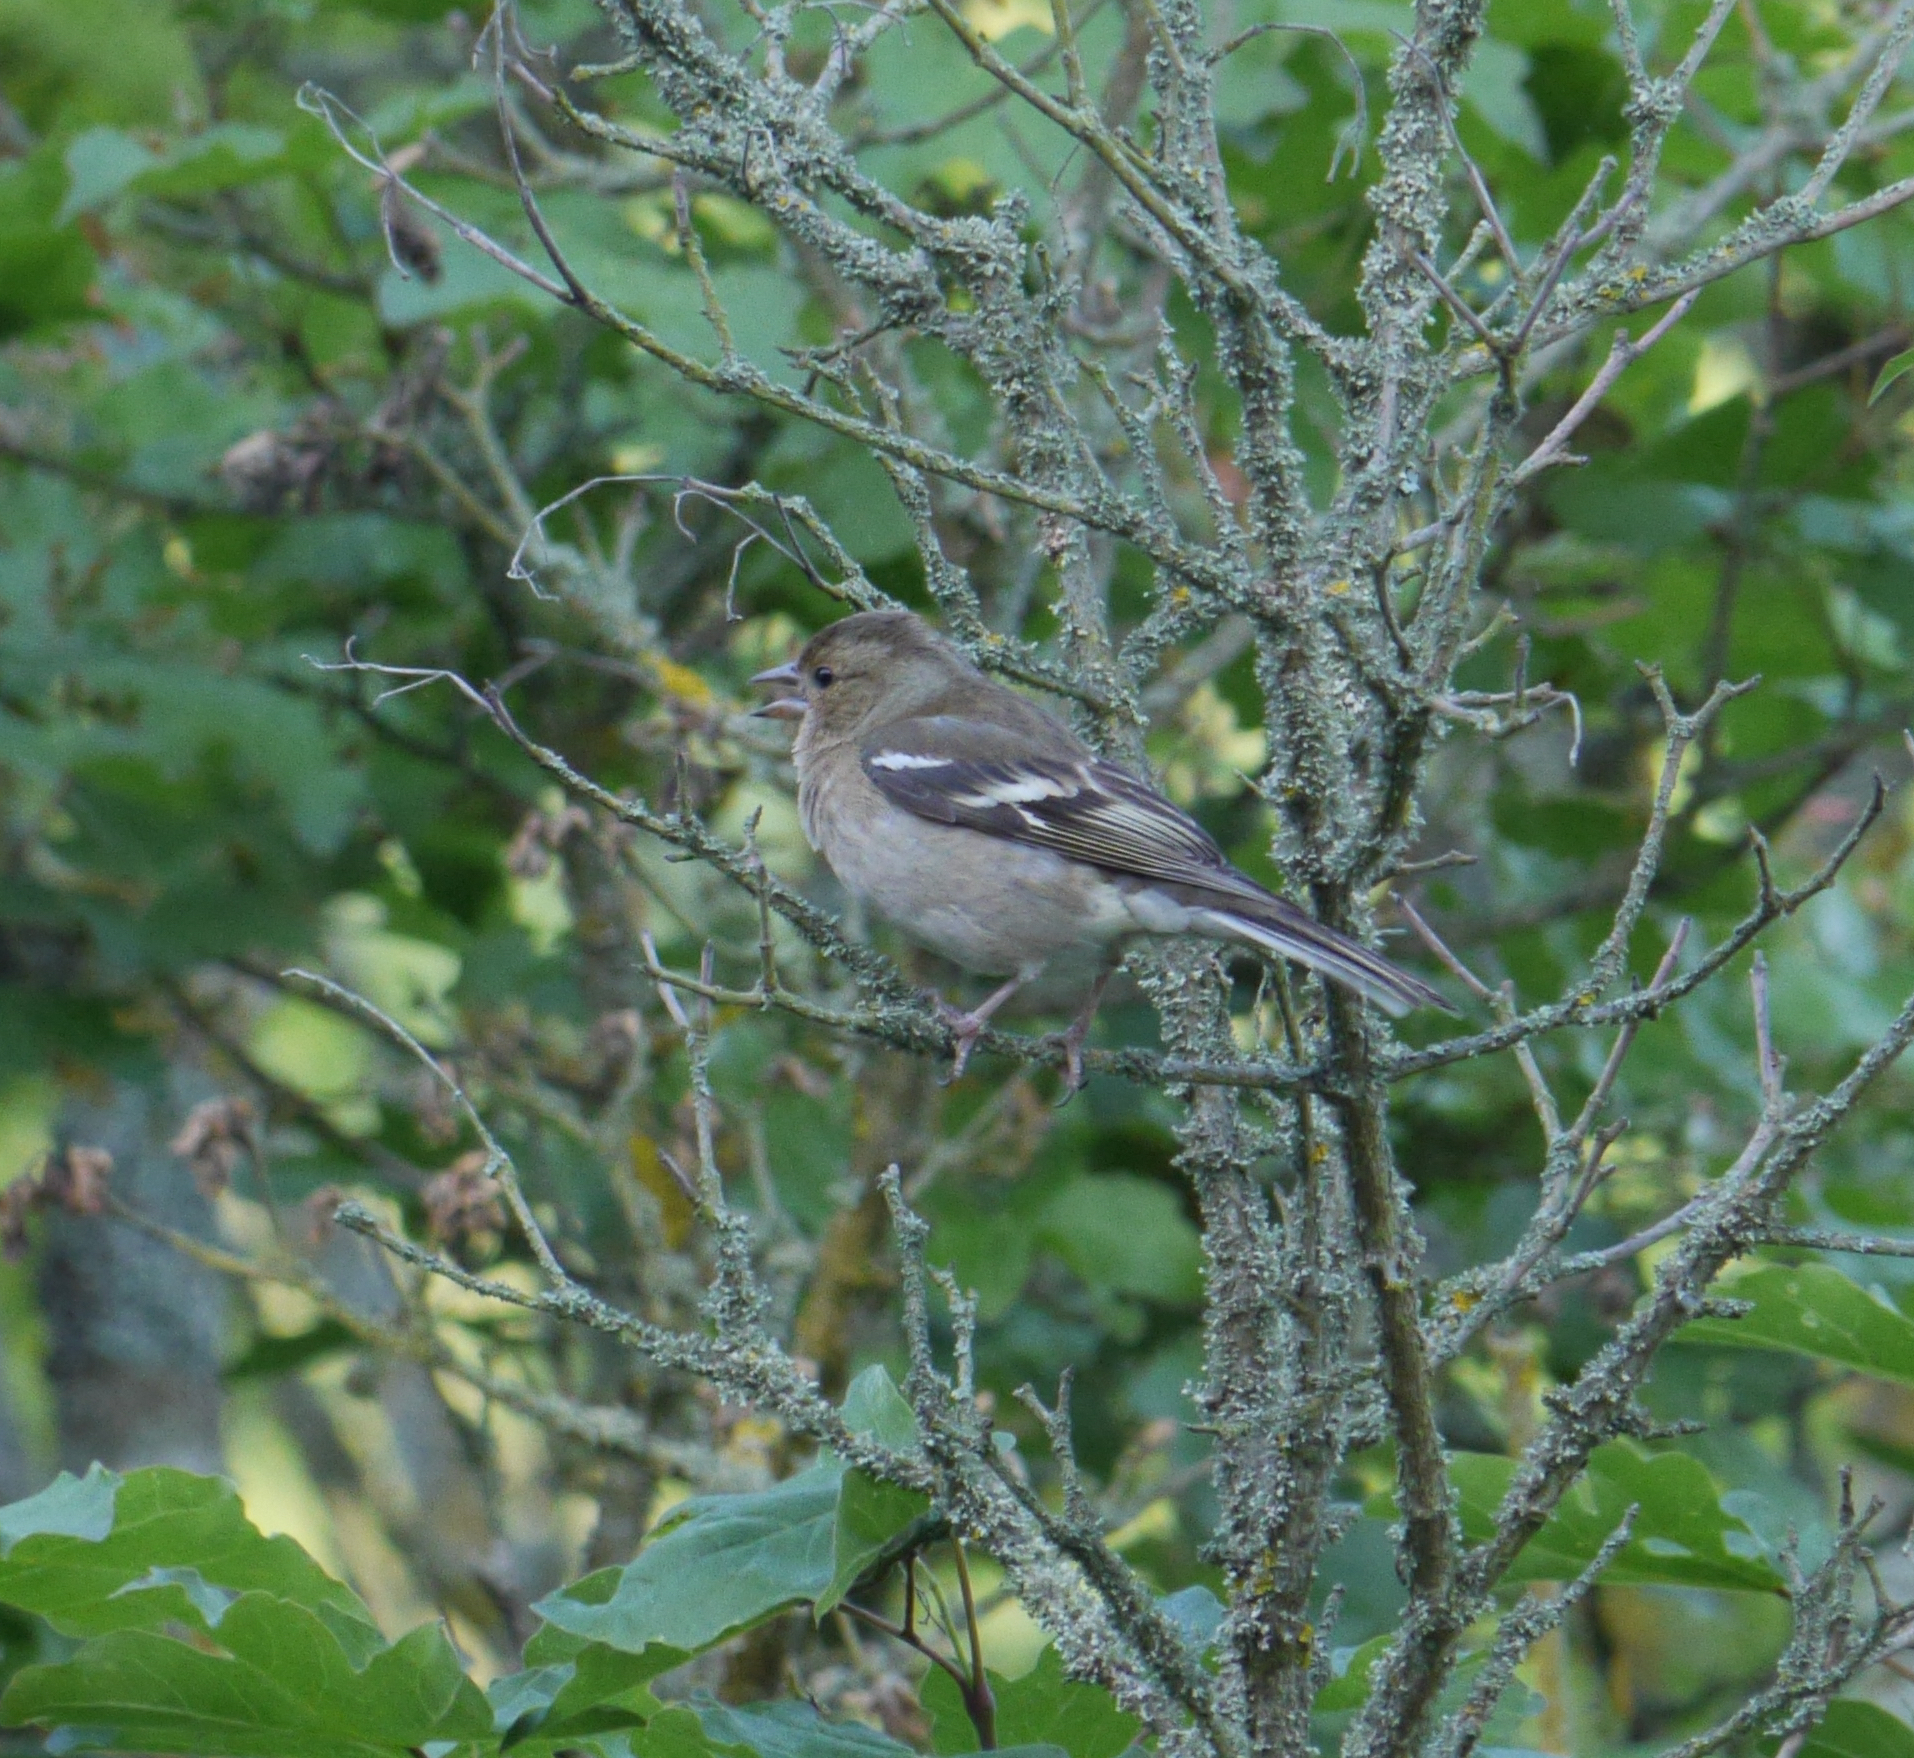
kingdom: Animalia
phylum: Chordata
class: Aves
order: Passeriformes
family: Fringillidae
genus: Fringilla
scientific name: Fringilla coelebs
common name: Common chaffinch
